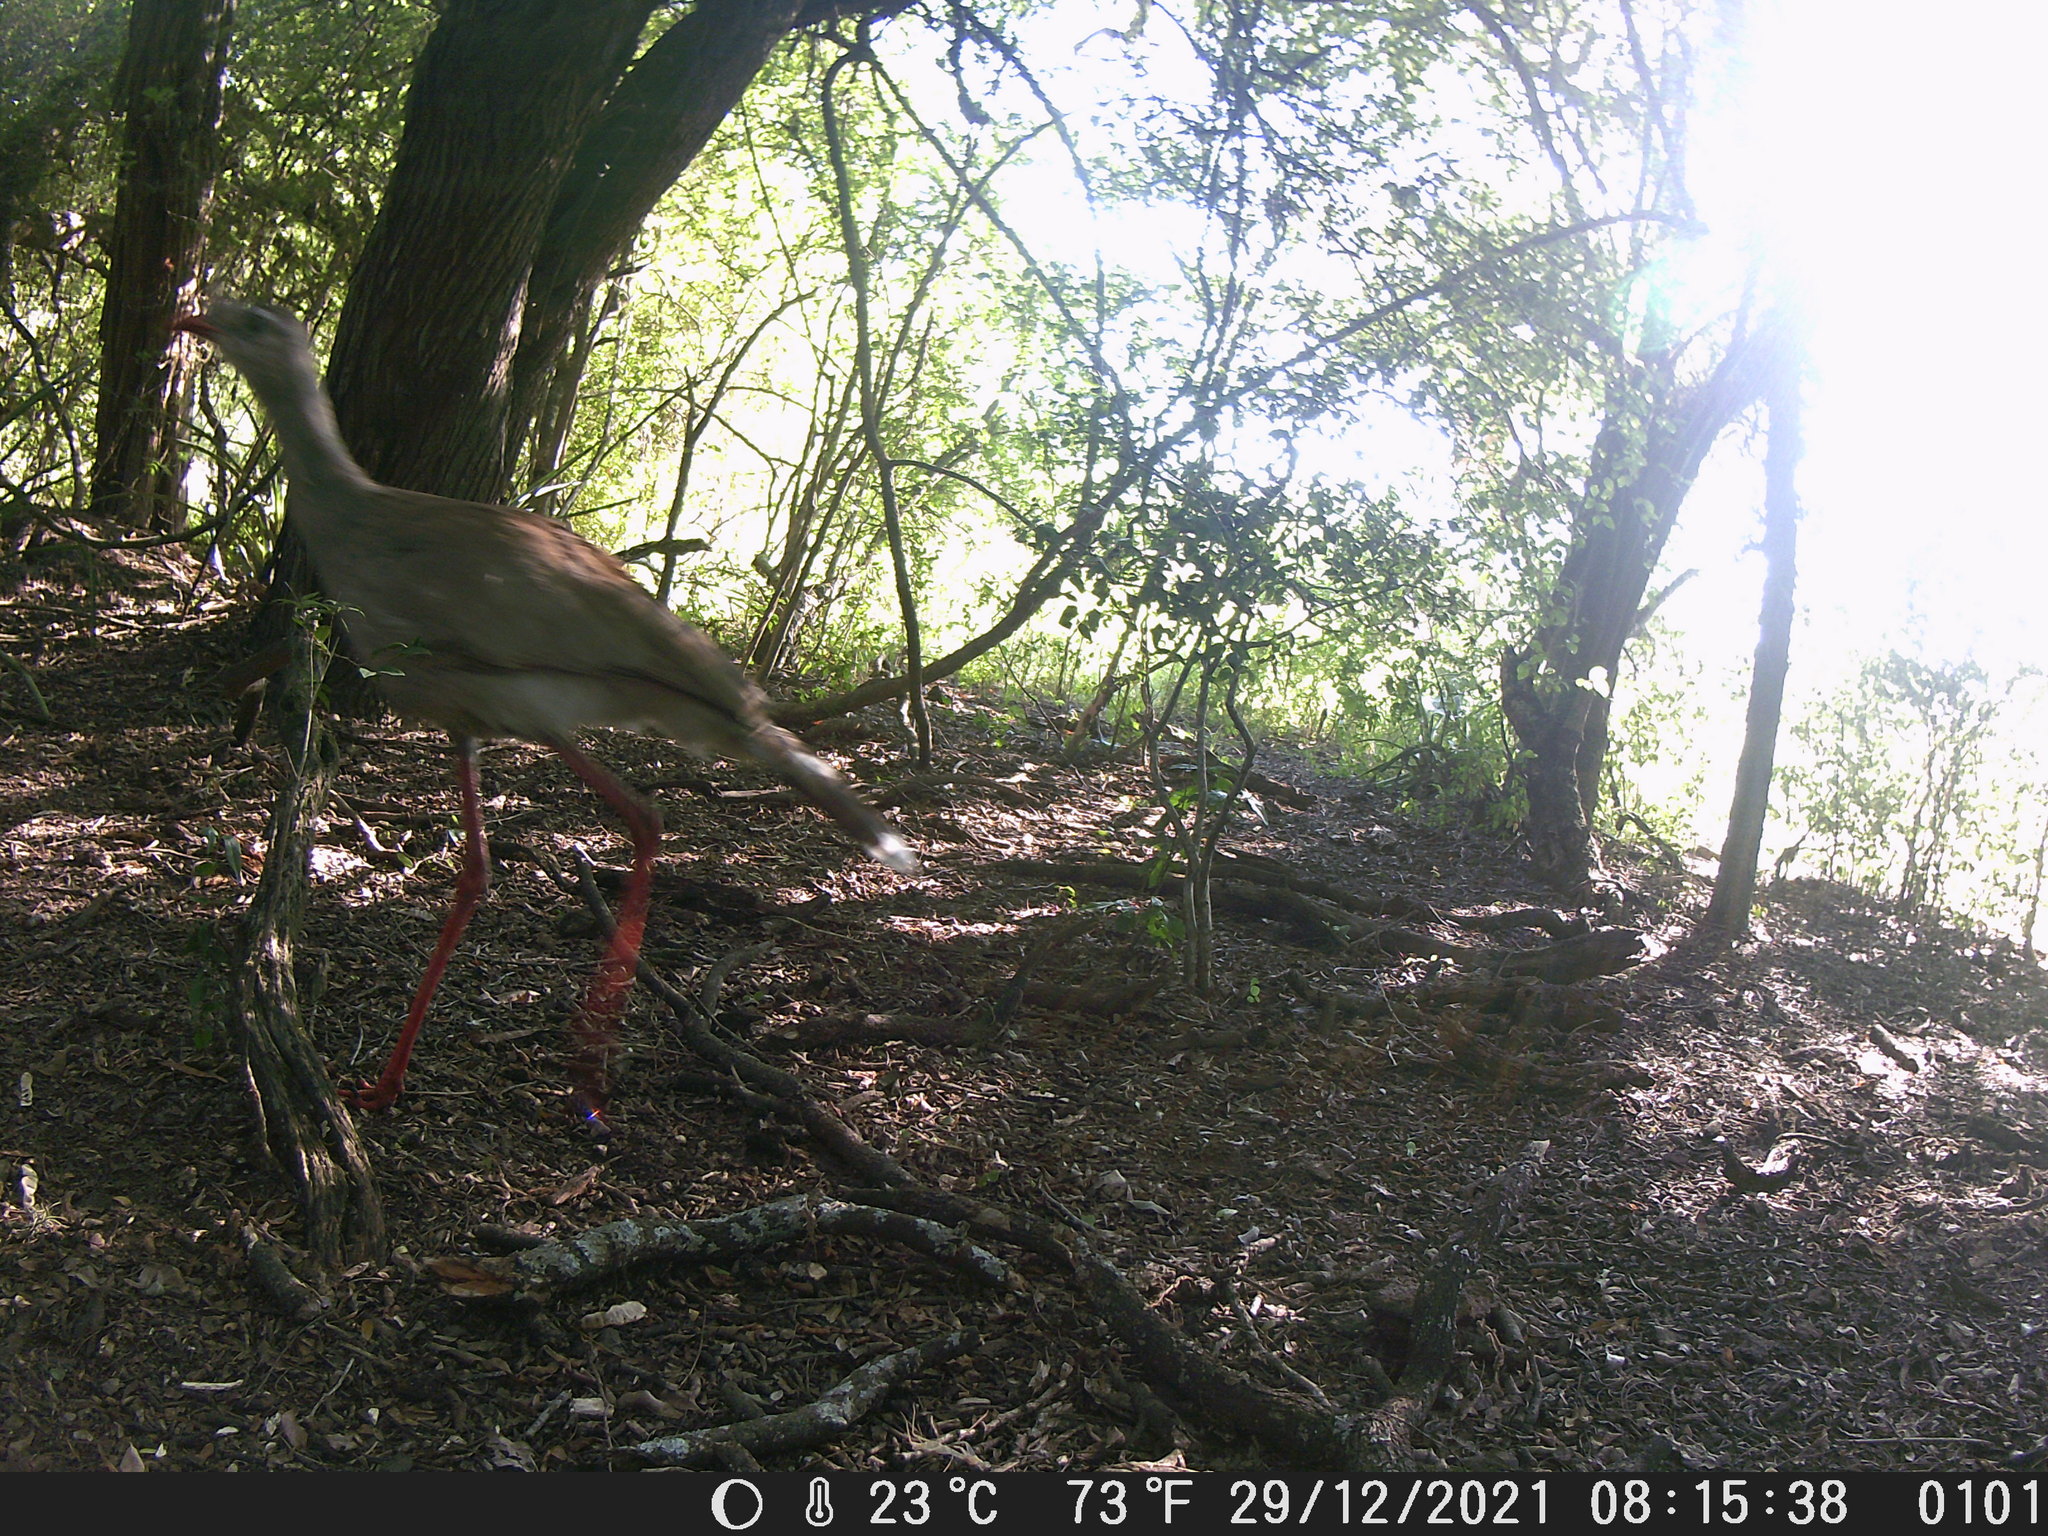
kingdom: Animalia
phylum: Chordata
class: Aves
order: Cariamiformes
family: Cariamidae
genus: Cariama
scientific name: Cariama cristata
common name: Red-legged seriema
